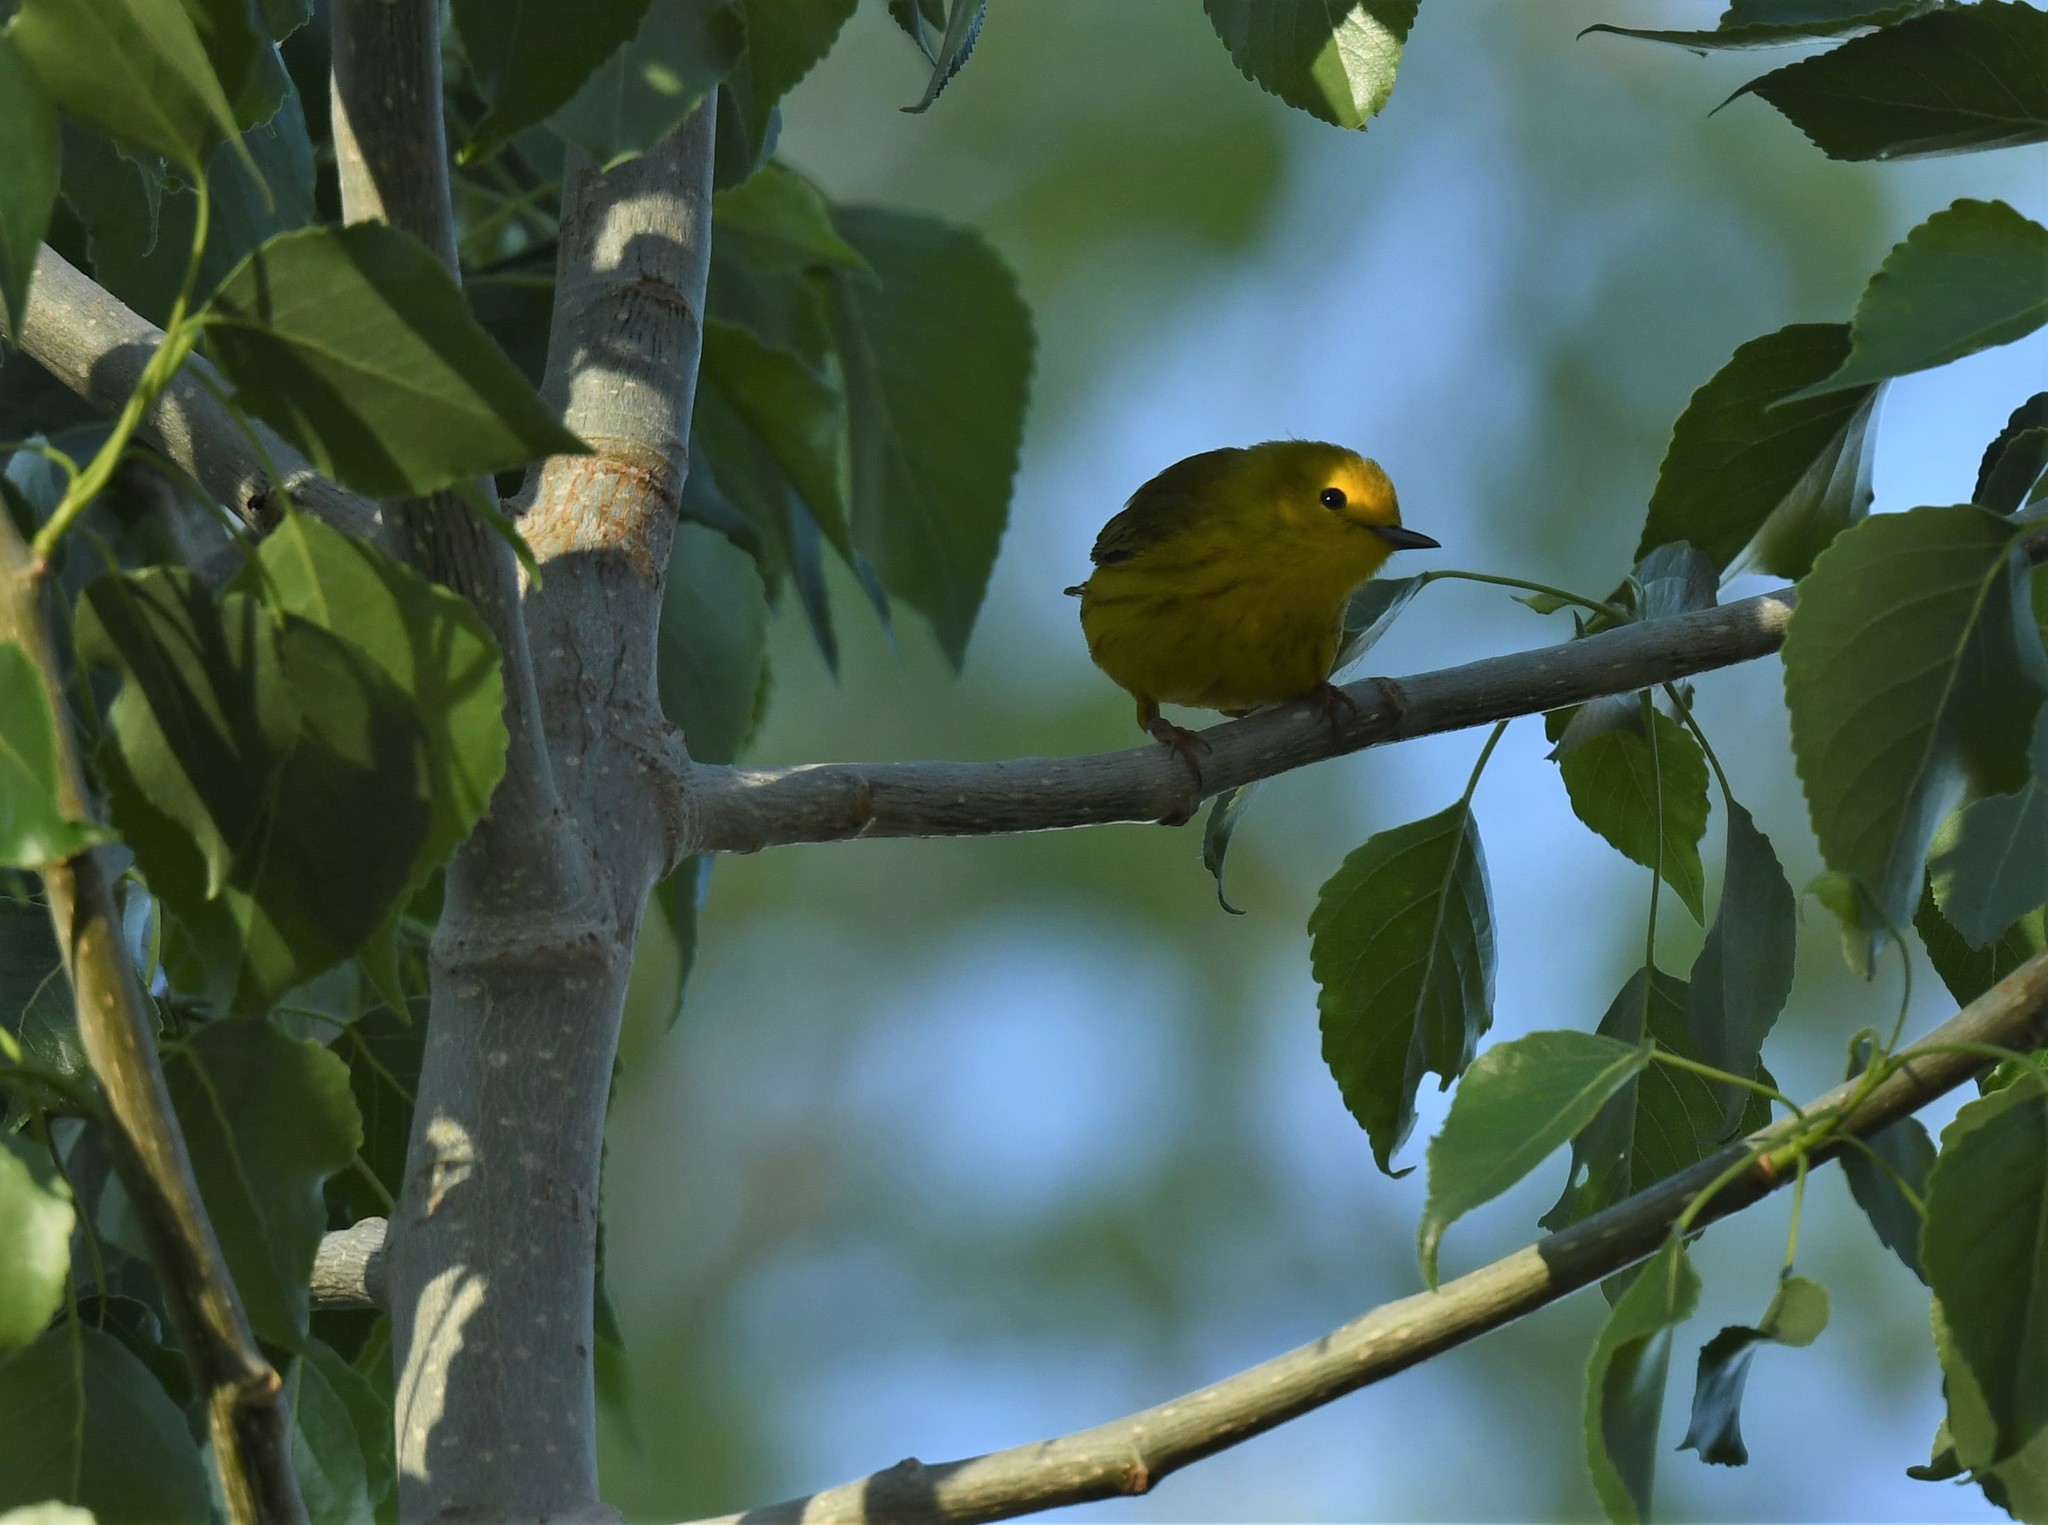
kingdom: Animalia
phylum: Chordata
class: Aves
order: Passeriformes
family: Parulidae
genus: Setophaga
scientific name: Setophaga petechia
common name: Yellow warbler
